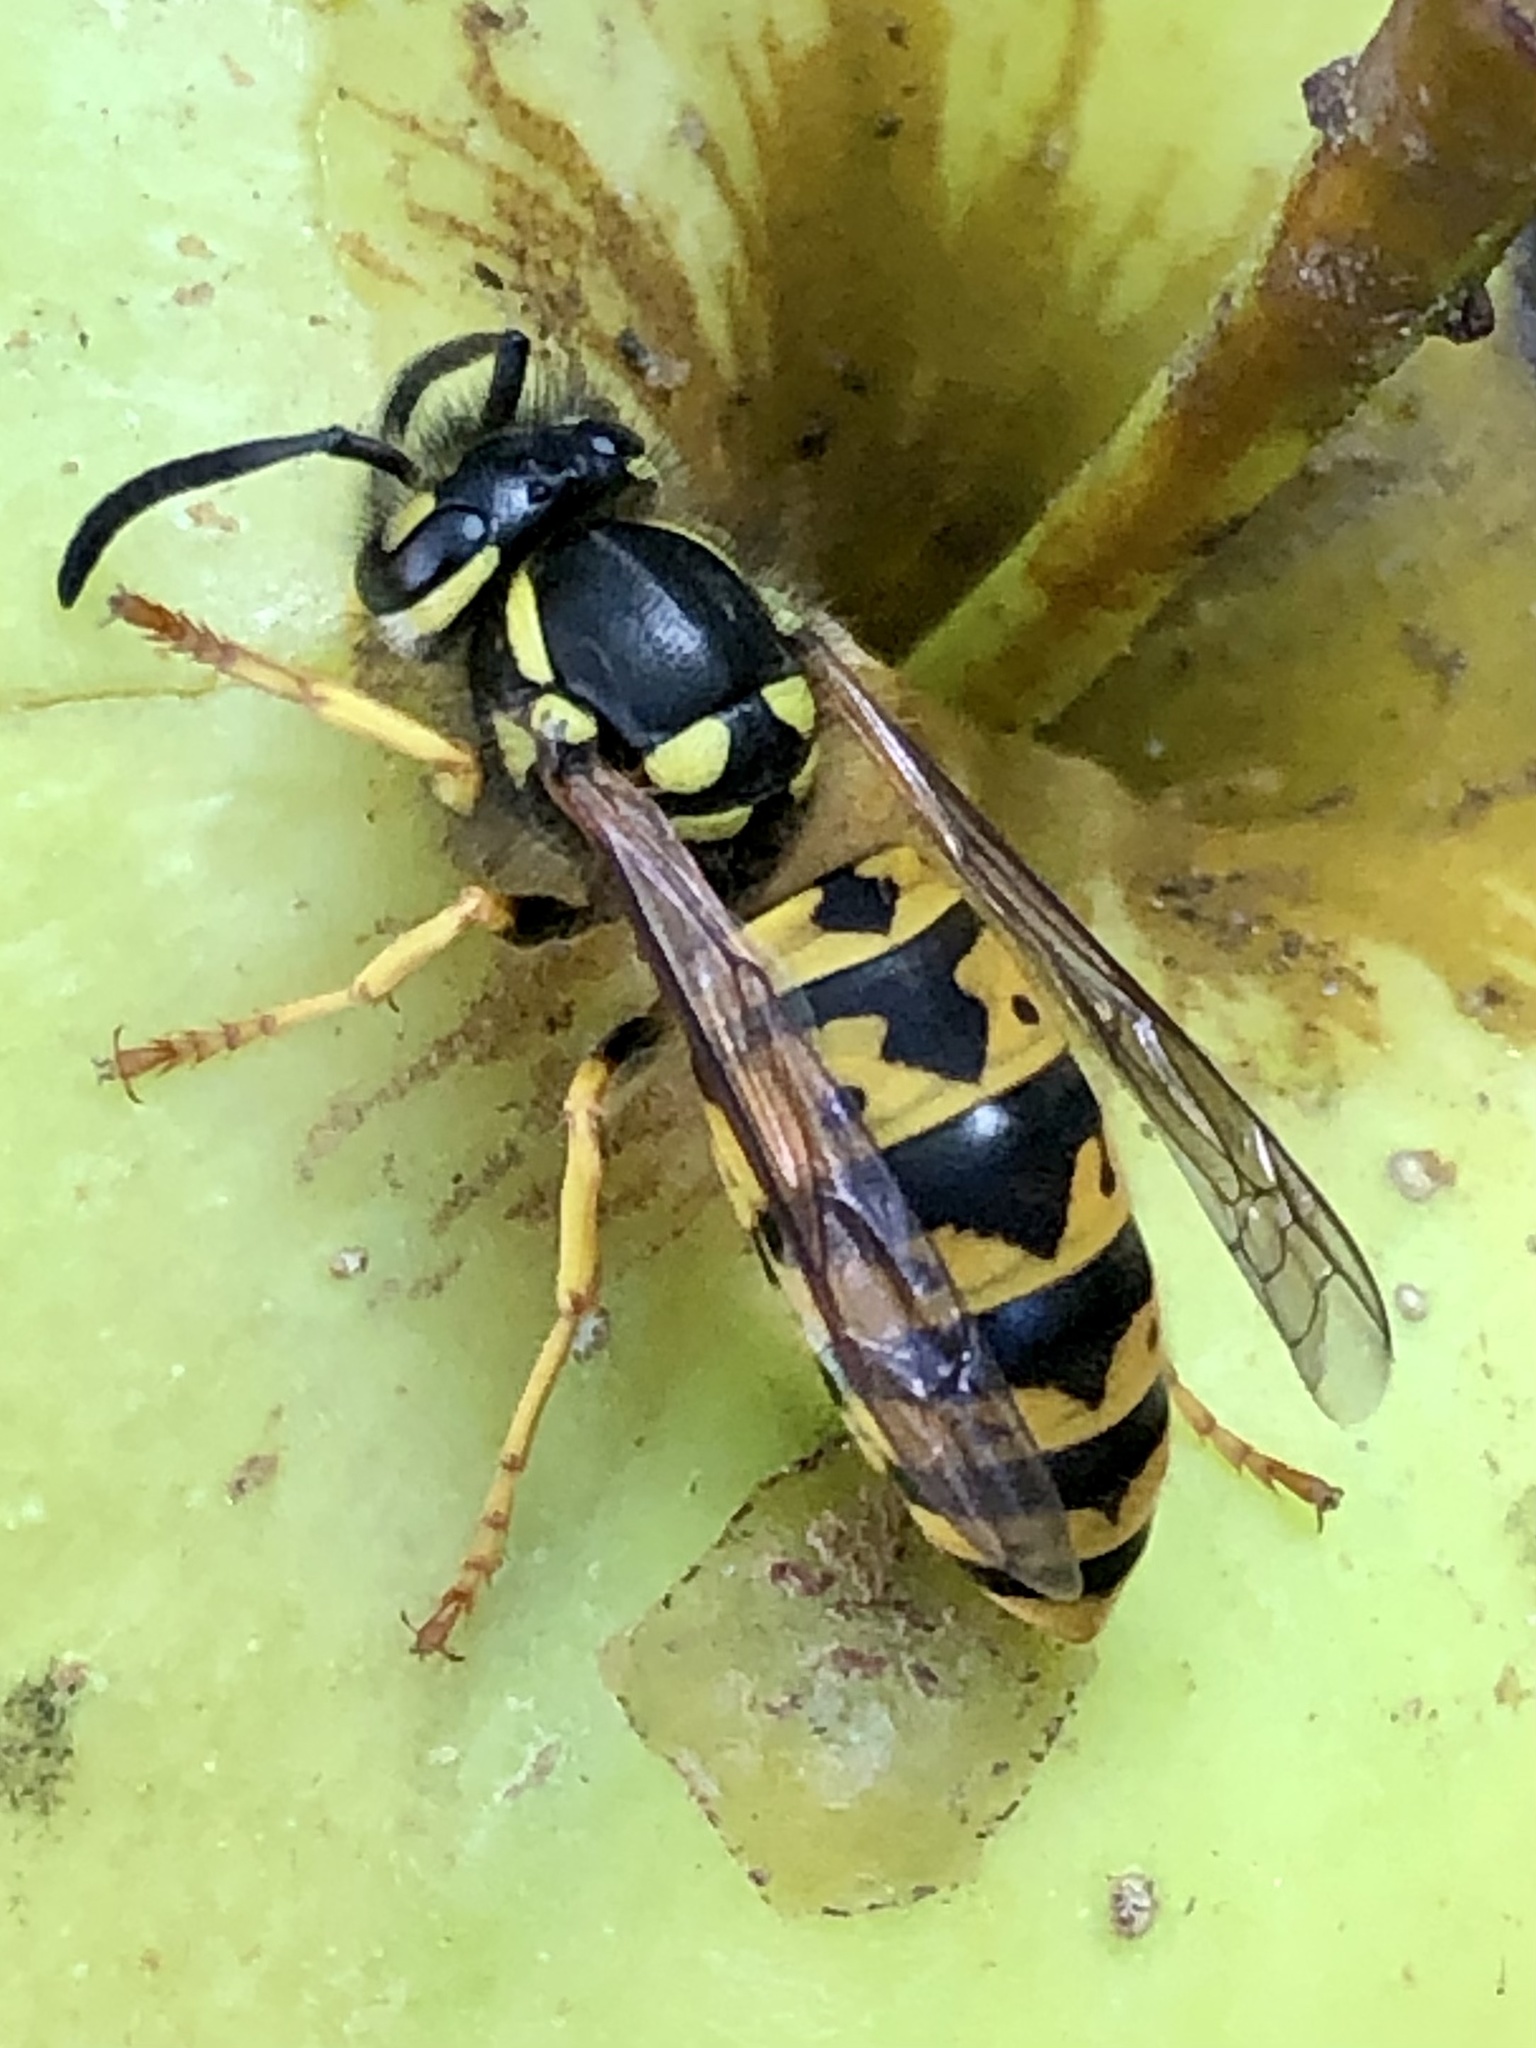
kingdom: Animalia
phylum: Arthropoda
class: Insecta
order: Hymenoptera
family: Vespidae
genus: Vespula
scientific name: Vespula germanica
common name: German wasp
